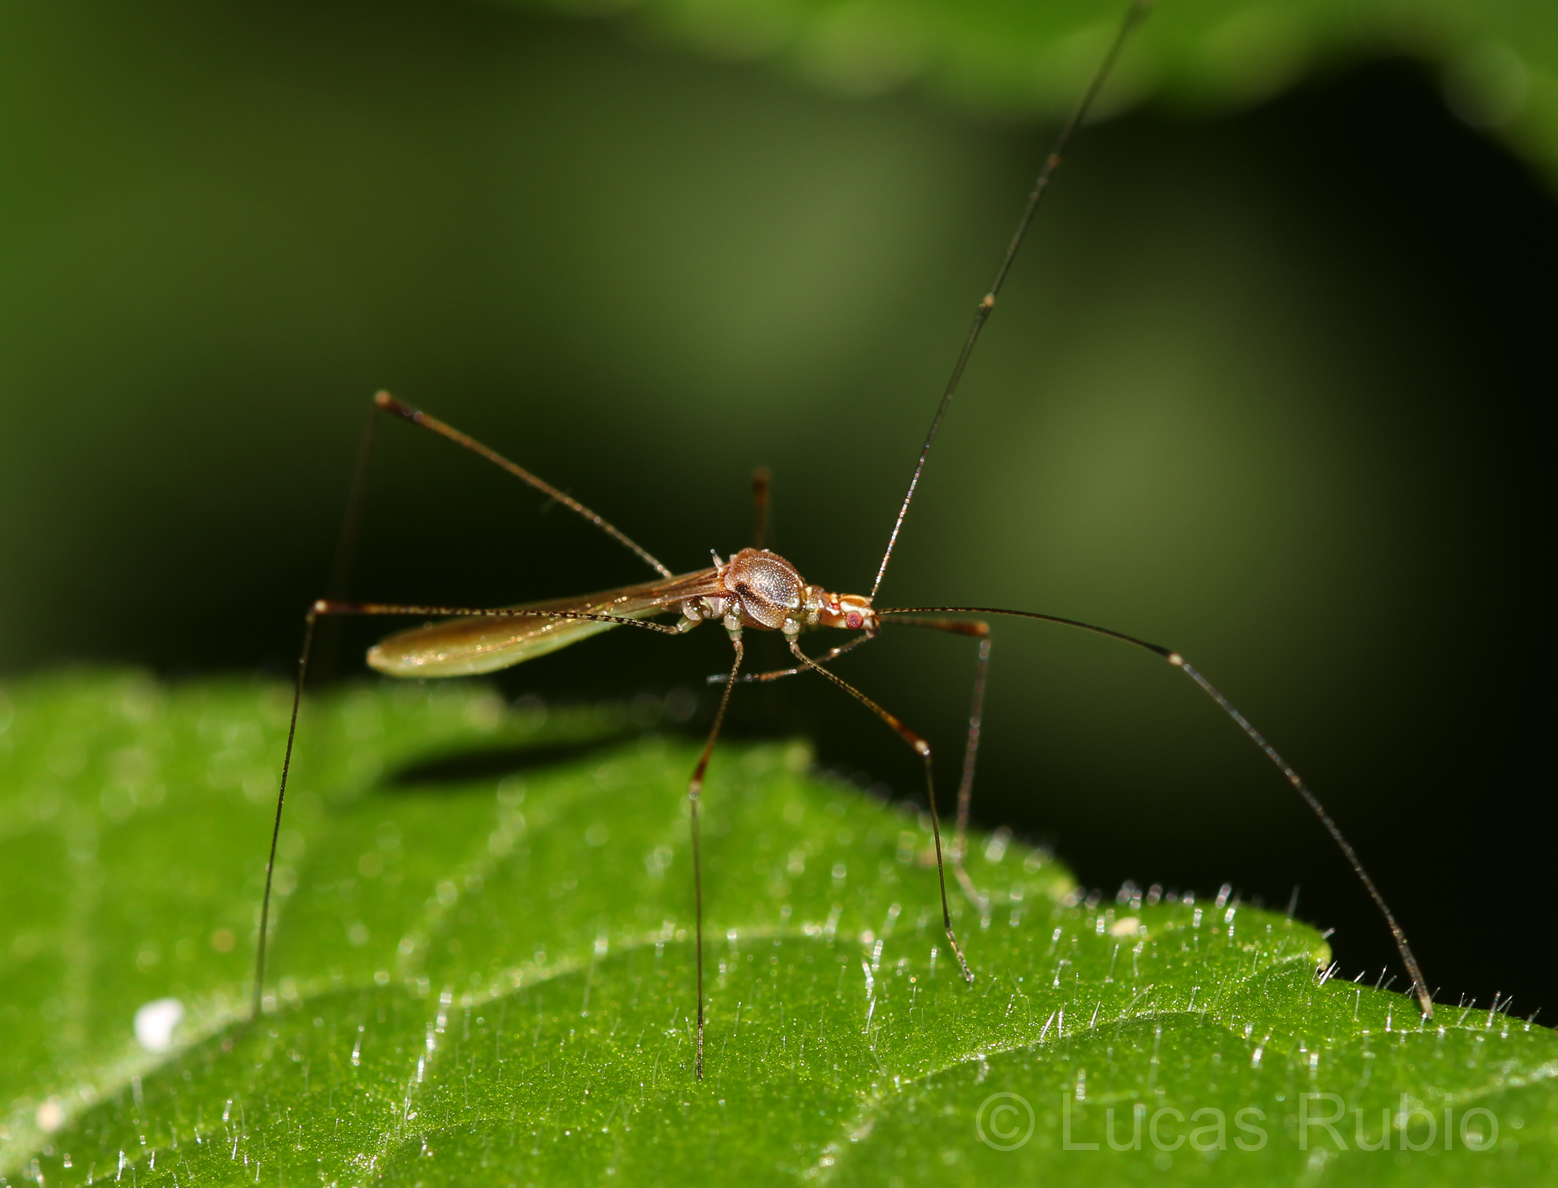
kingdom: Animalia
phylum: Arthropoda
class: Insecta
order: Hemiptera
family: Berytidae
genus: Jalysus
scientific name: Jalysus sobrinus
